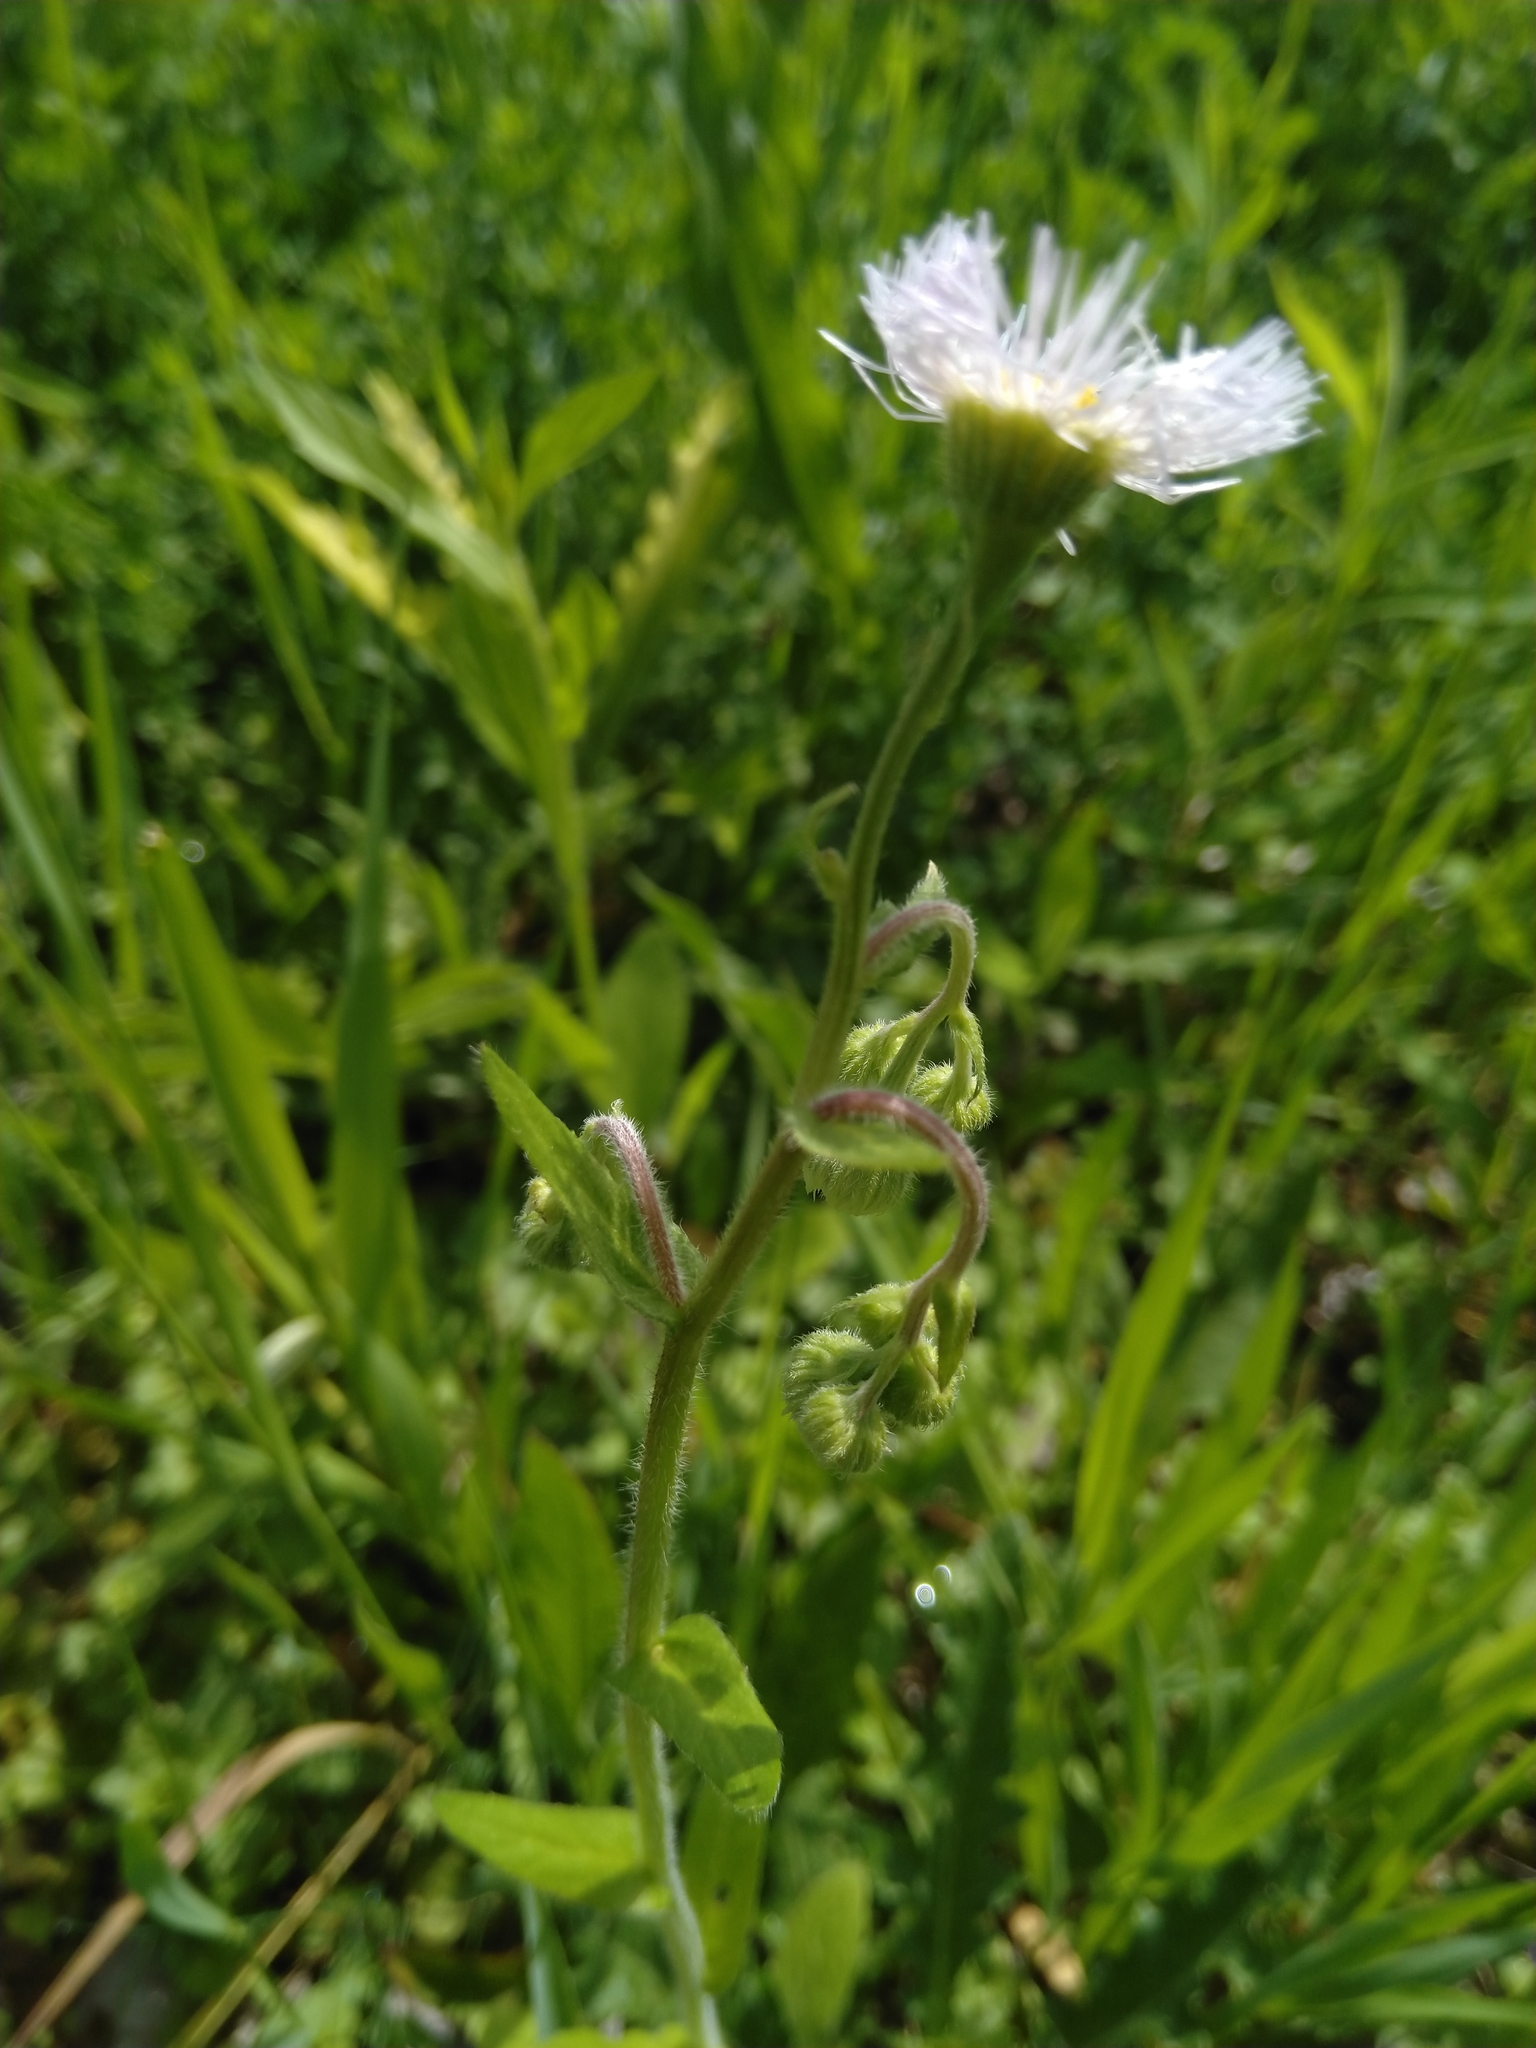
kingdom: Plantae
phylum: Tracheophyta
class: Magnoliopsida
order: Asterales
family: Asteraceae
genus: Erigeron
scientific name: Erigeron philadelphicus
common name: Robin's-plantain
